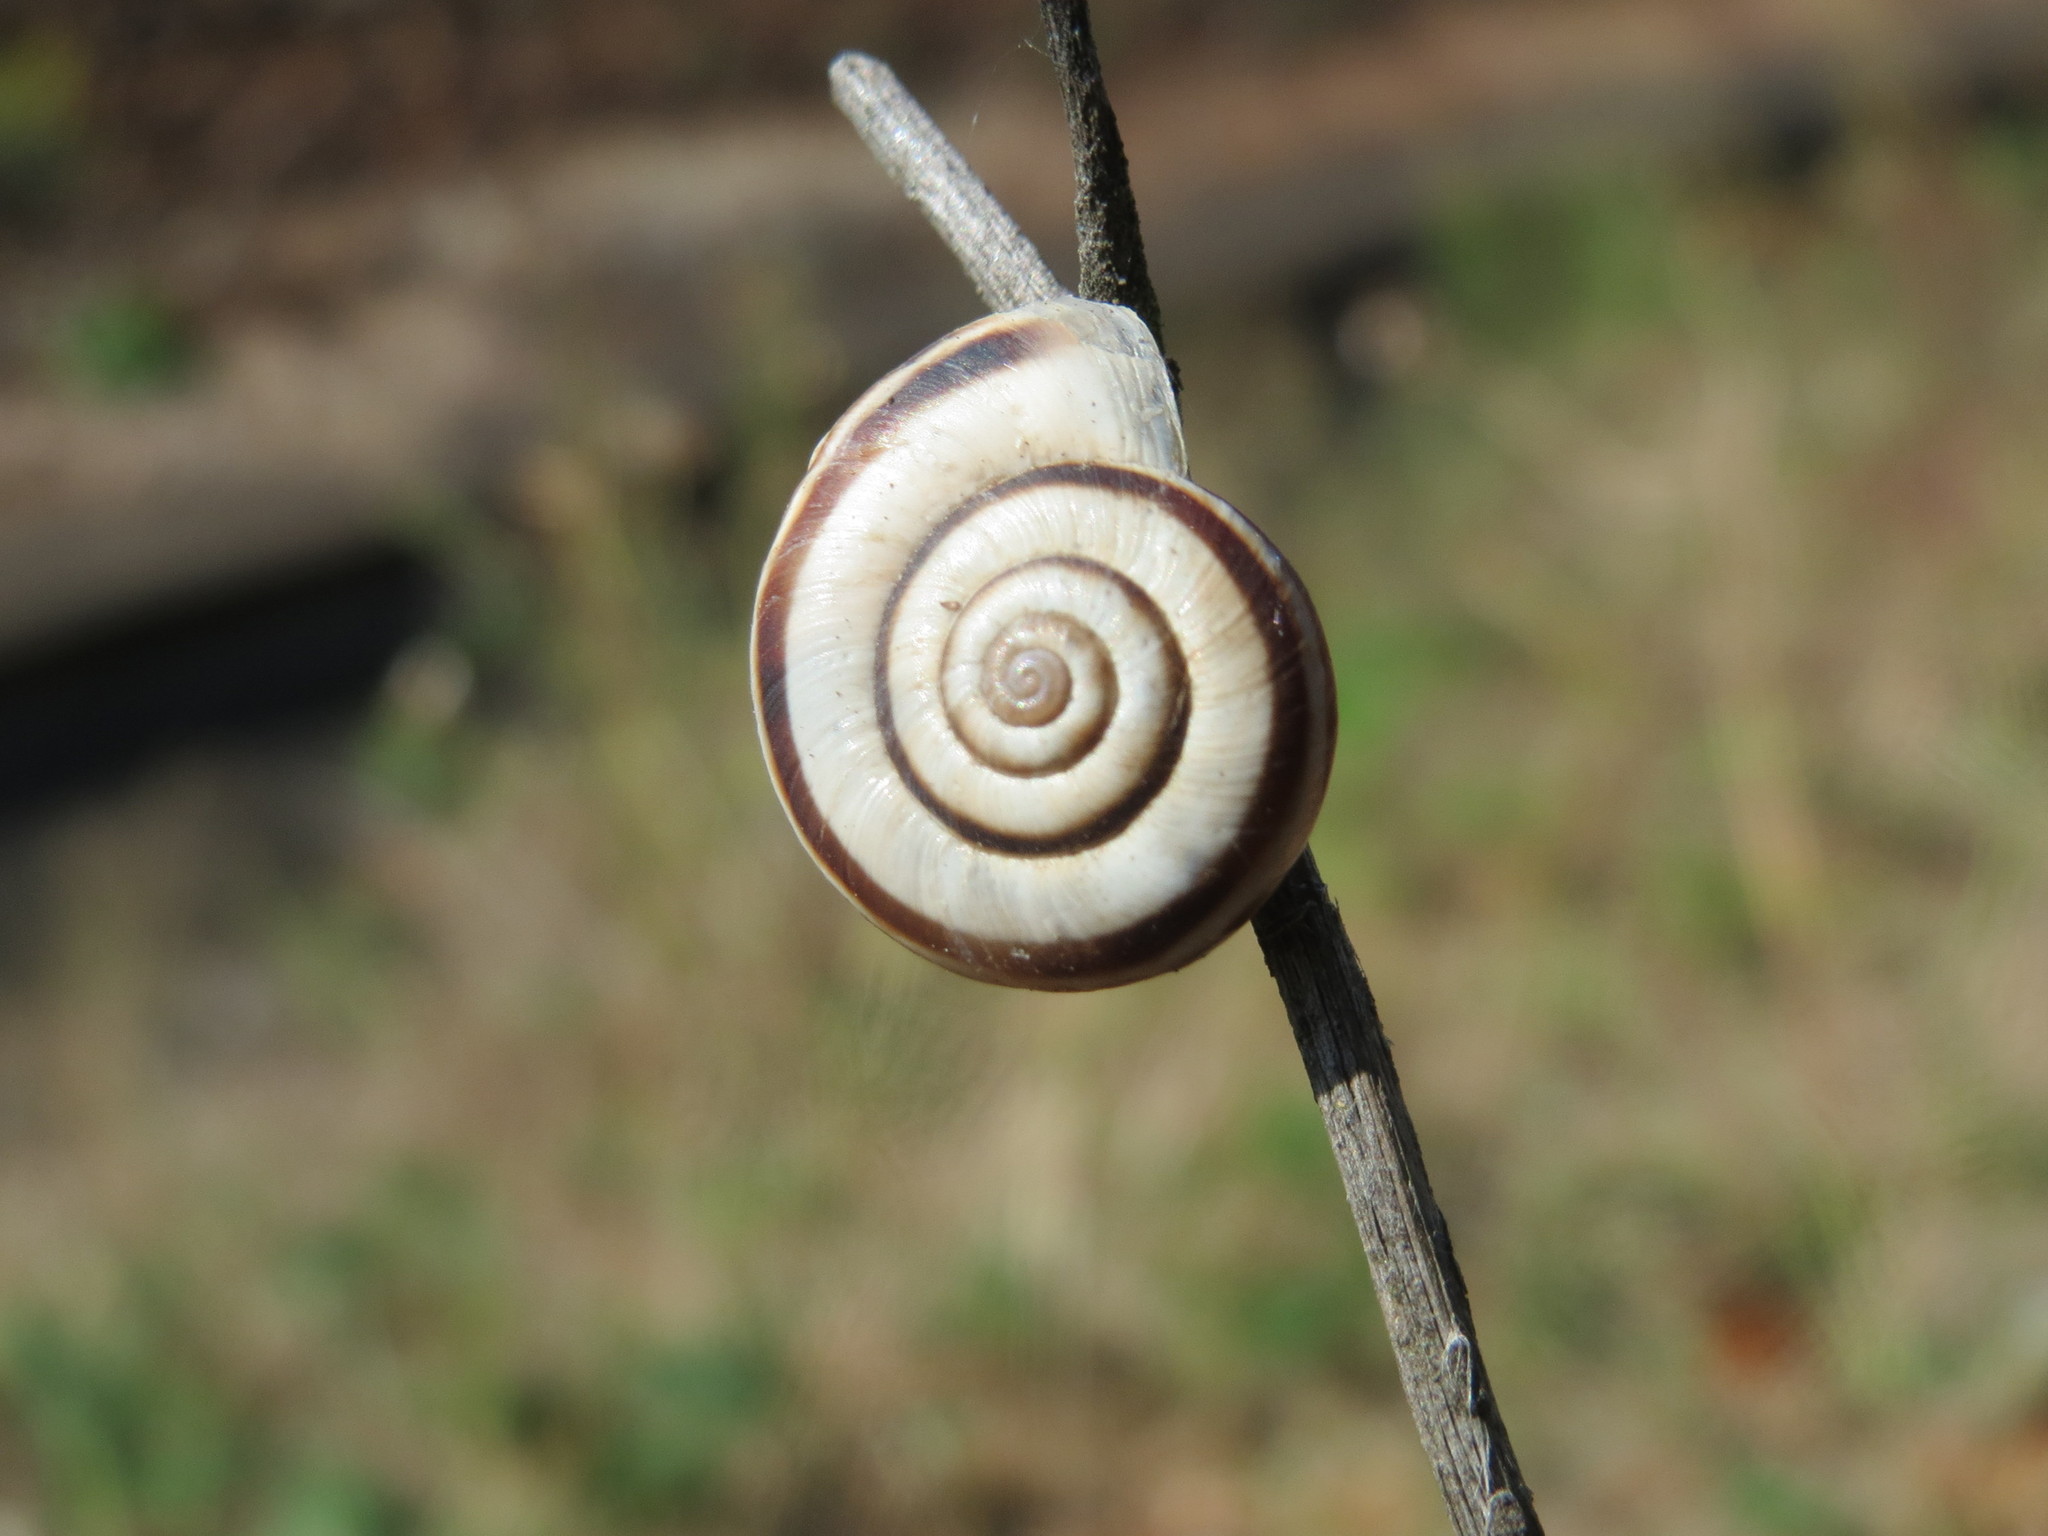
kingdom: Animalia
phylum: Mollusca
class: Gastropoda
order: Stylommatophora
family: Geomitridae
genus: Helicella
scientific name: Helicella itala
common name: Heath snail
